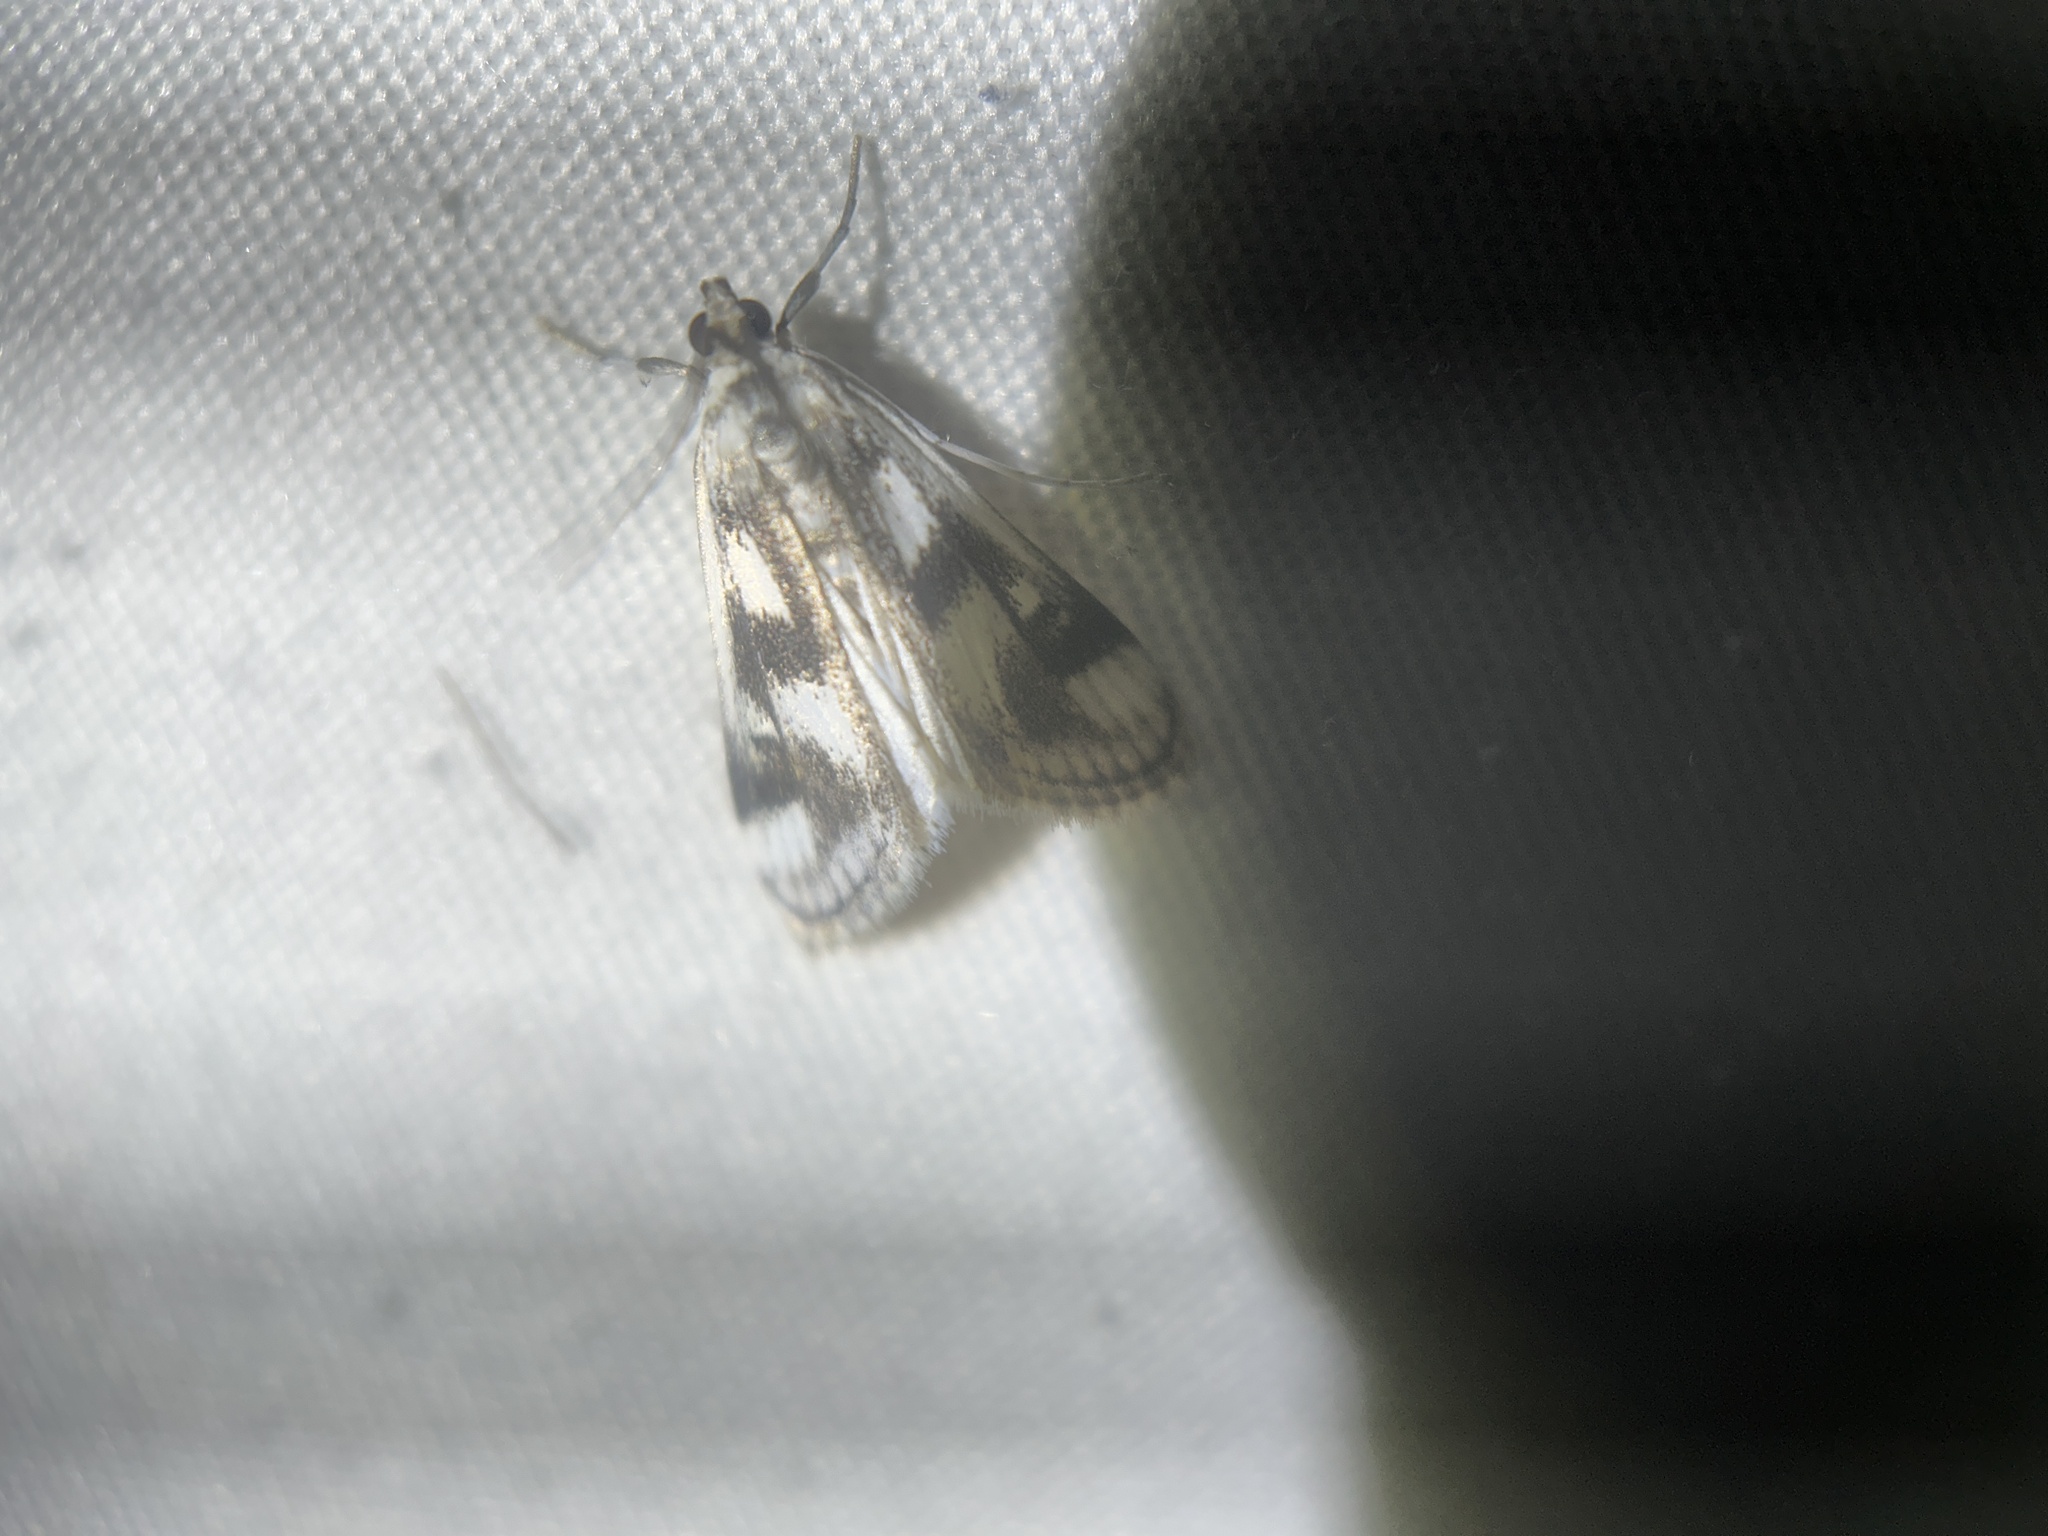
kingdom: Animalia
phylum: Arthropoda
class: Insecta
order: Lepidoptera
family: Crambidae
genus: Parapoynx
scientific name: Parapoynx maculalis
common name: Polymorphic pondweed moth
